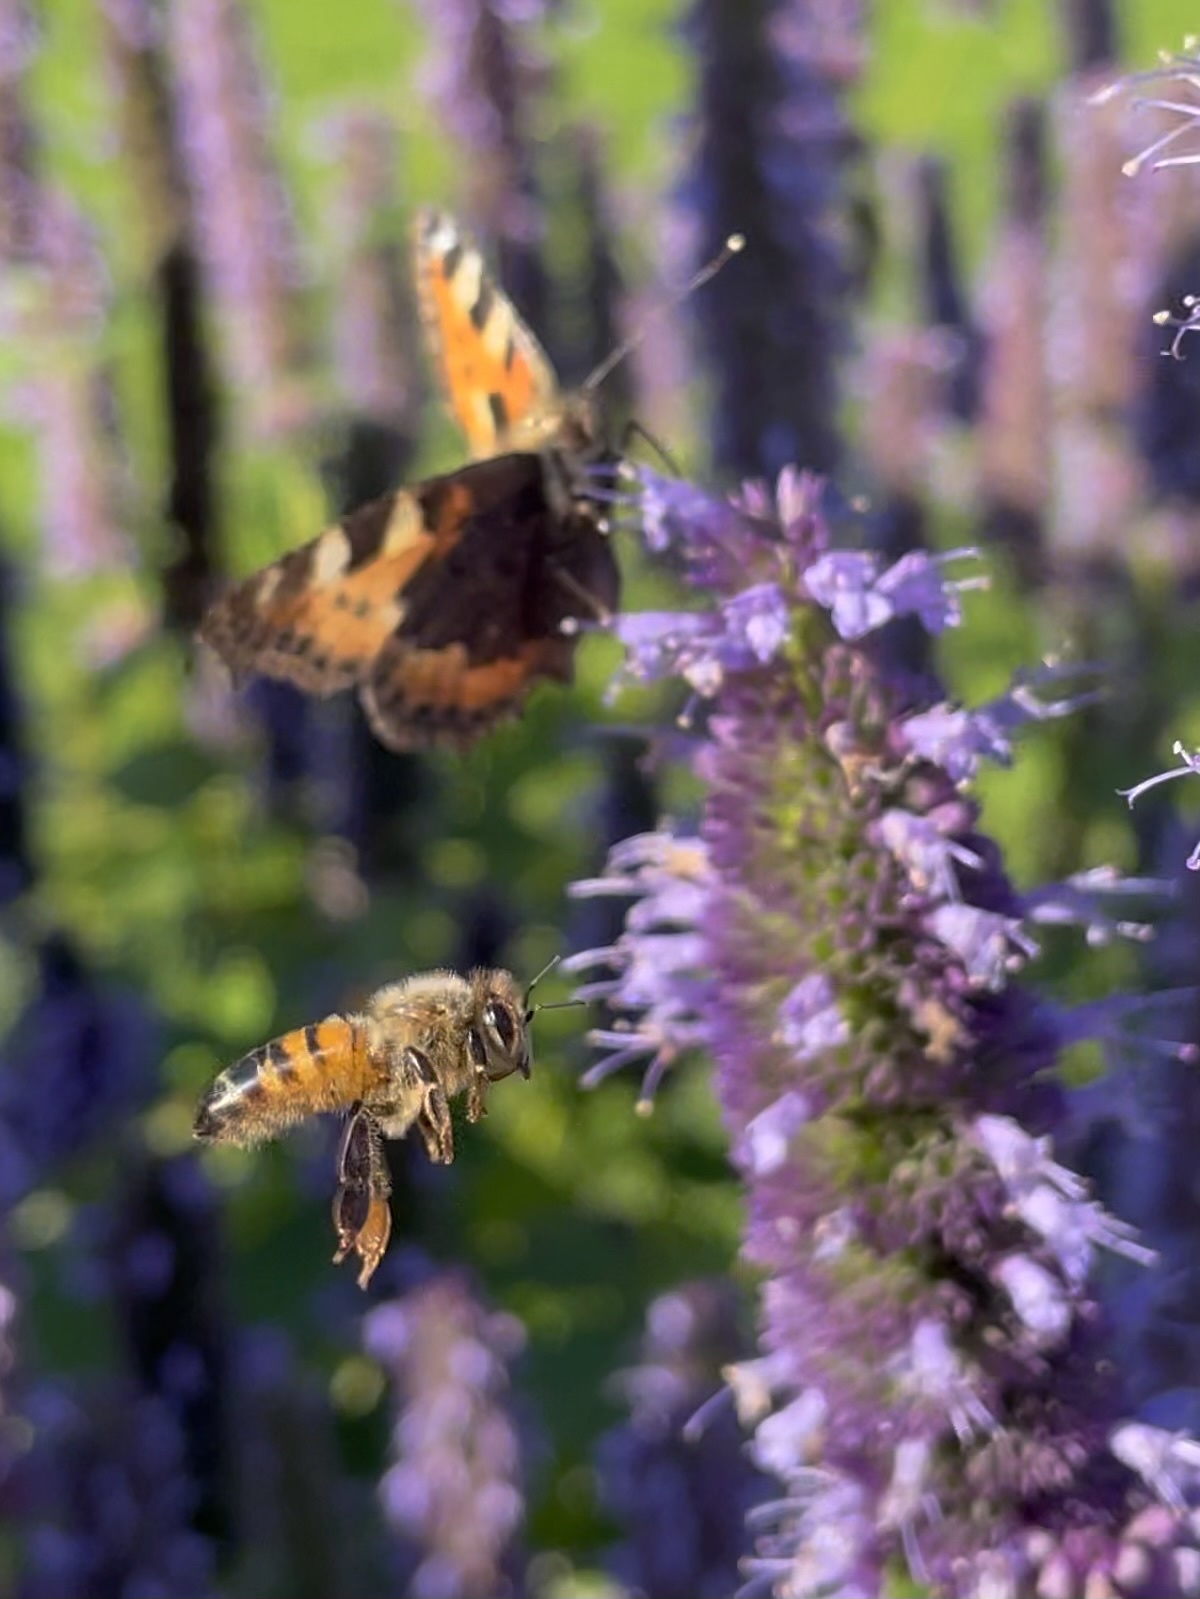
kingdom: Animalia
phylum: Arthropoda
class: Insecta
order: Hymenoptera
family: Apidae
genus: Apis
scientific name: Apis mellifera
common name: Honey bee
